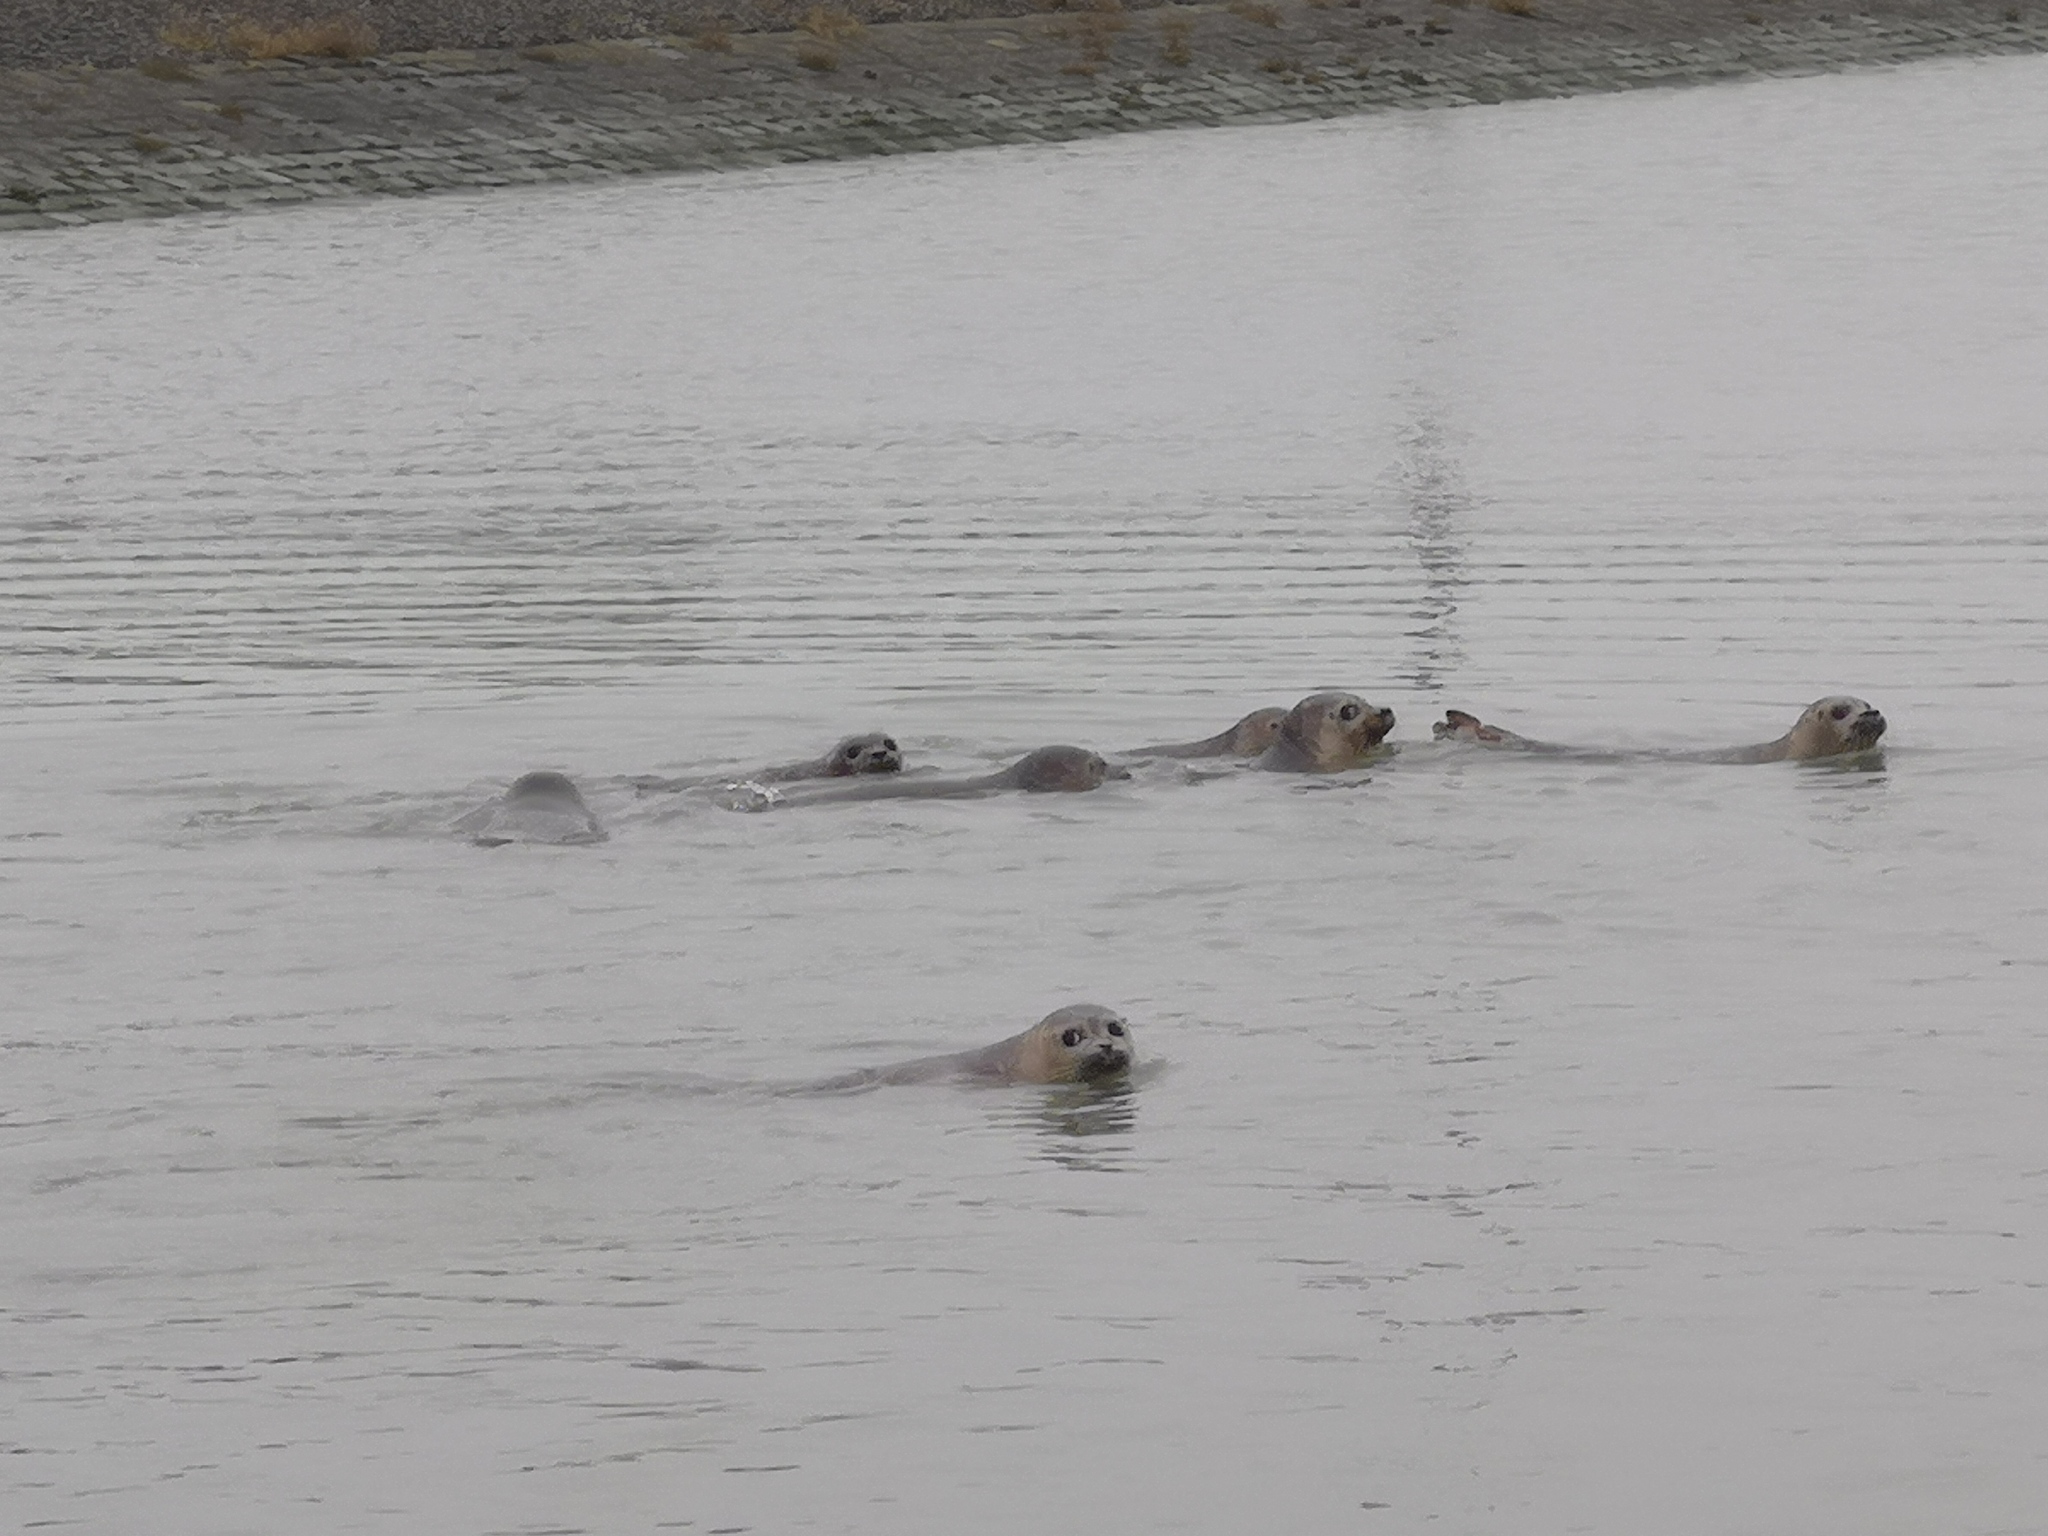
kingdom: Animalia
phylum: Chordata
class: Mammalia
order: Carnivora
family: Phocidae
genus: Phoca
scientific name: Phoca vitulina
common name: Harbor seal
